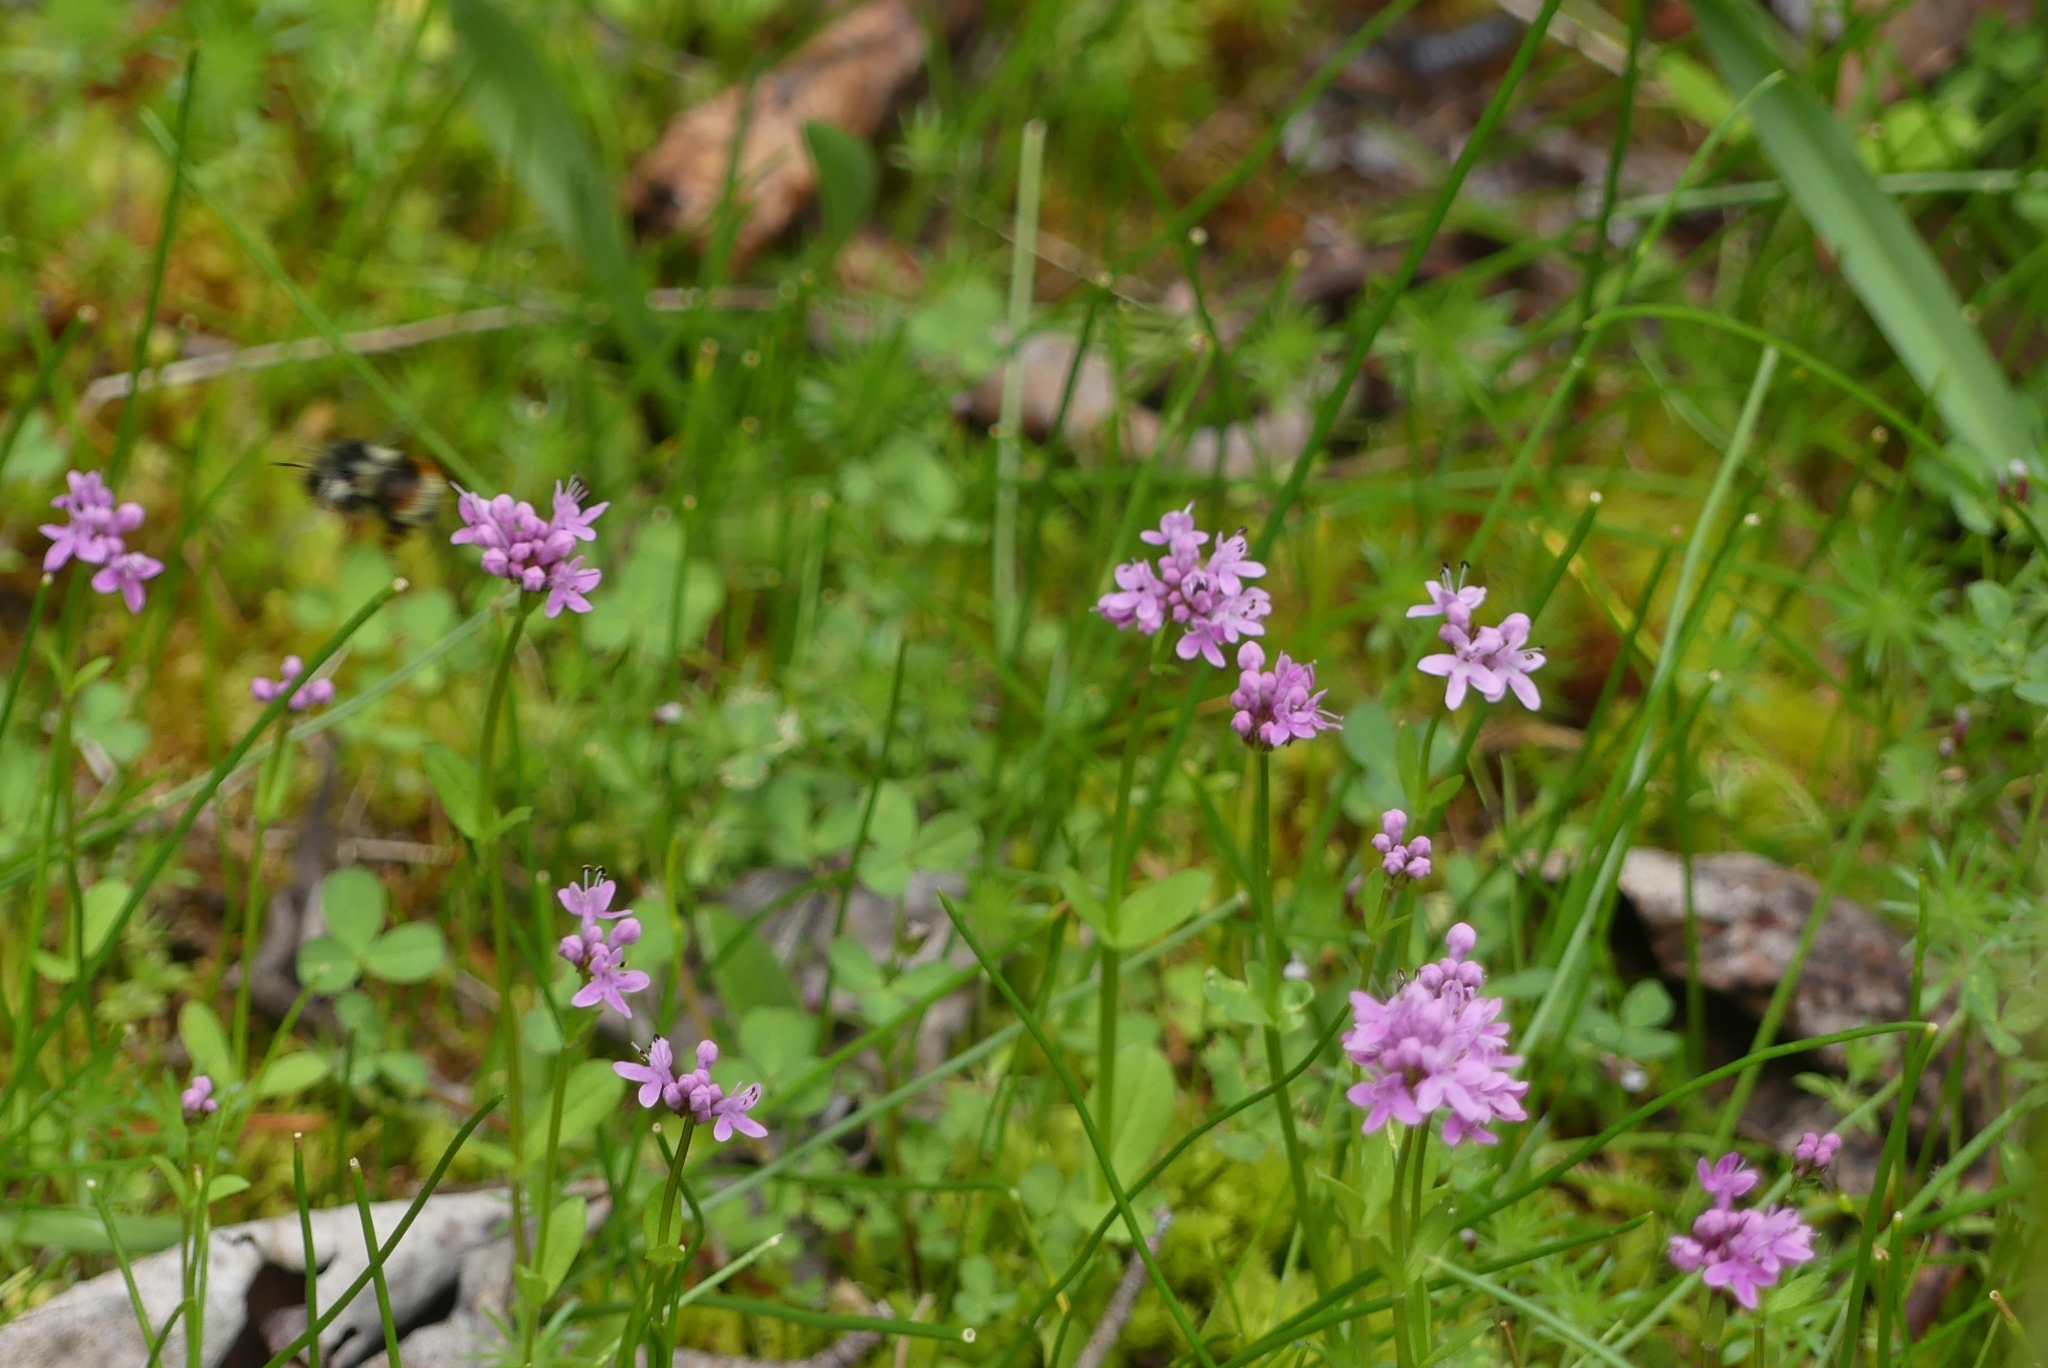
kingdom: Plantae
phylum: Tracheophyta
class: Magnoliopsida
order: Dipsacales
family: Caprifoliaceae
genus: Plectritis
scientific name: Plectritis congesta
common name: Pink plectritis
